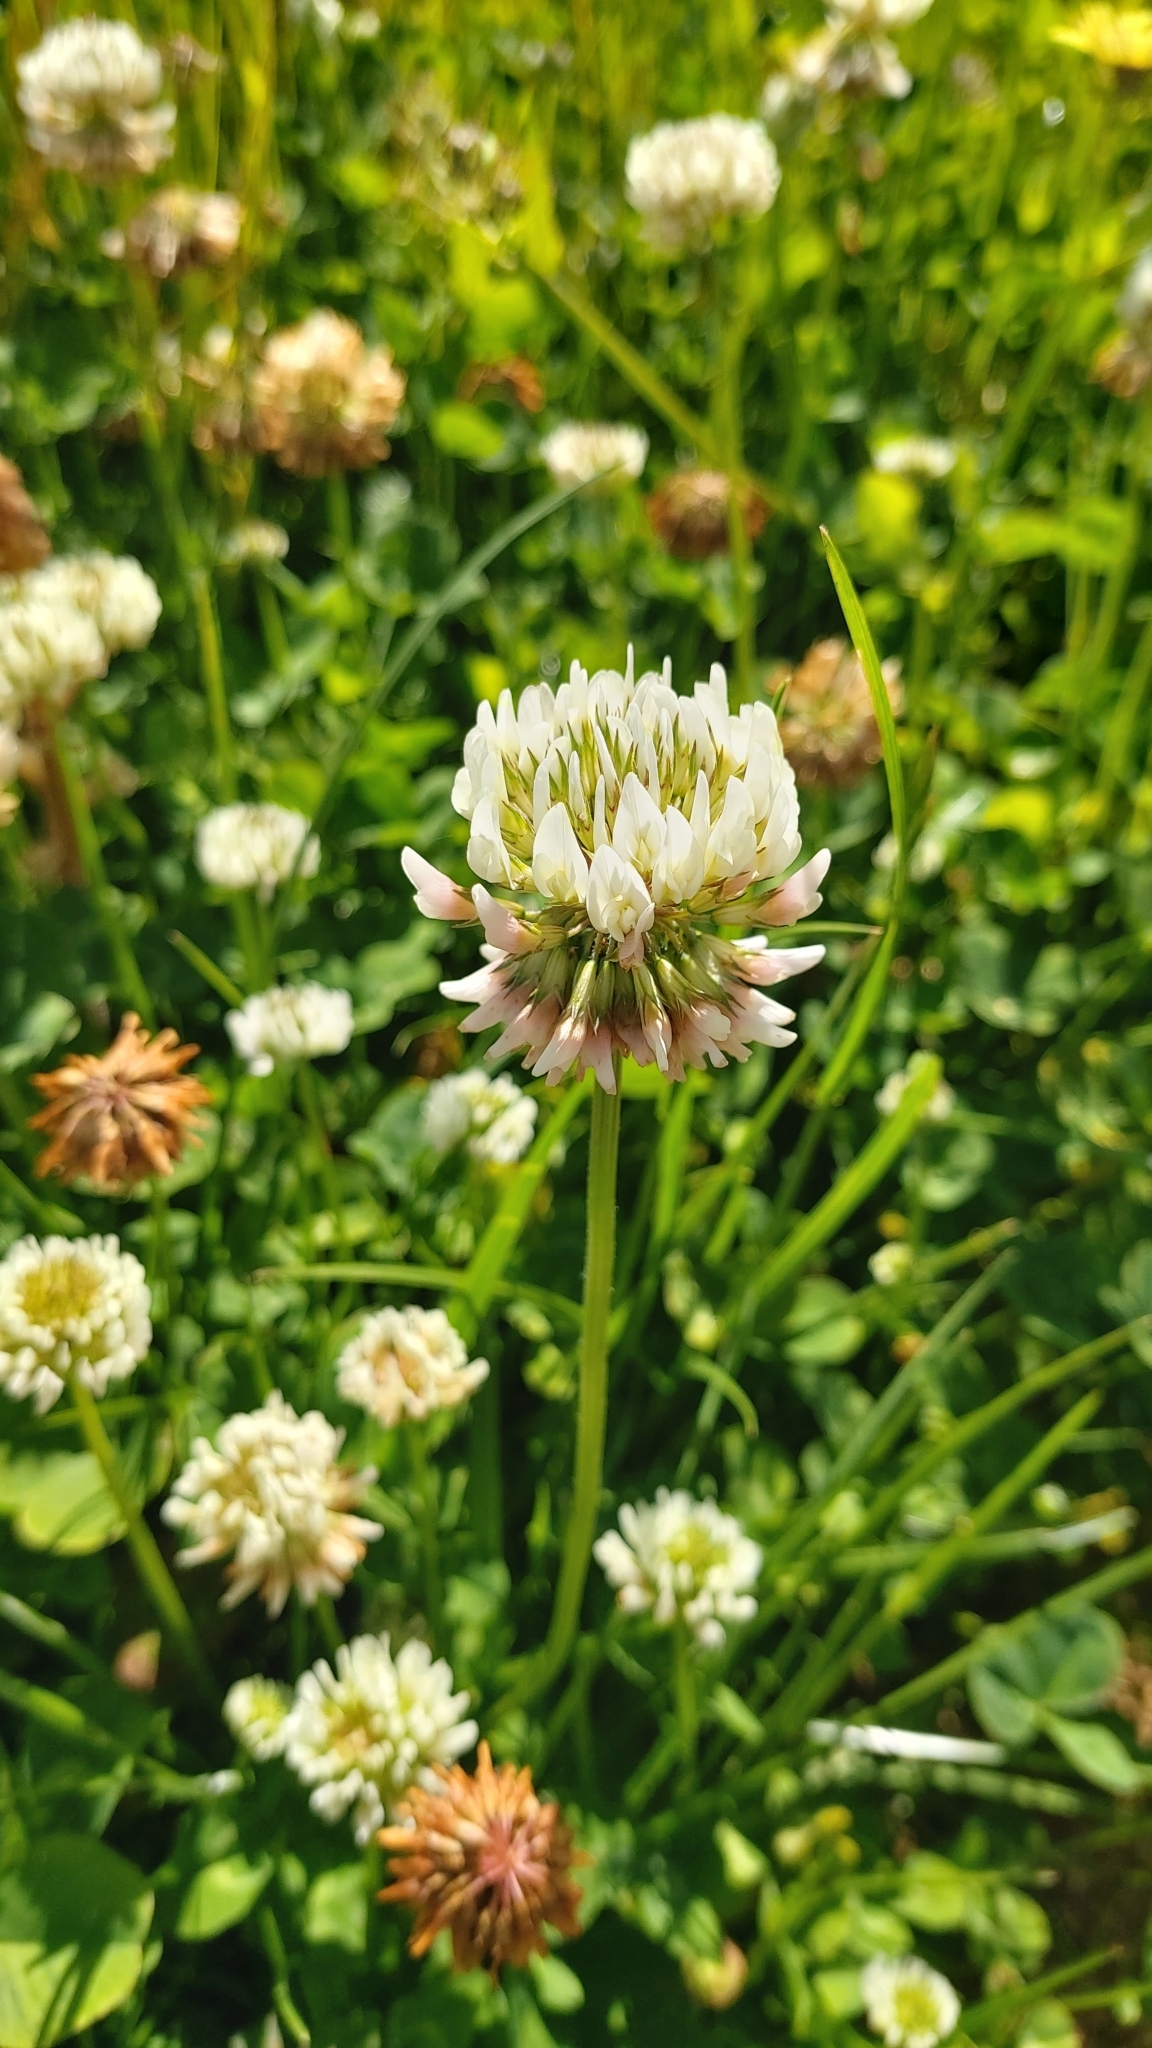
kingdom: Plantae
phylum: Tracheophyta
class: Magnoliopsida
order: Fabales
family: Fabaceae
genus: Trifolium
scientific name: Trifolium repens
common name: White clover
